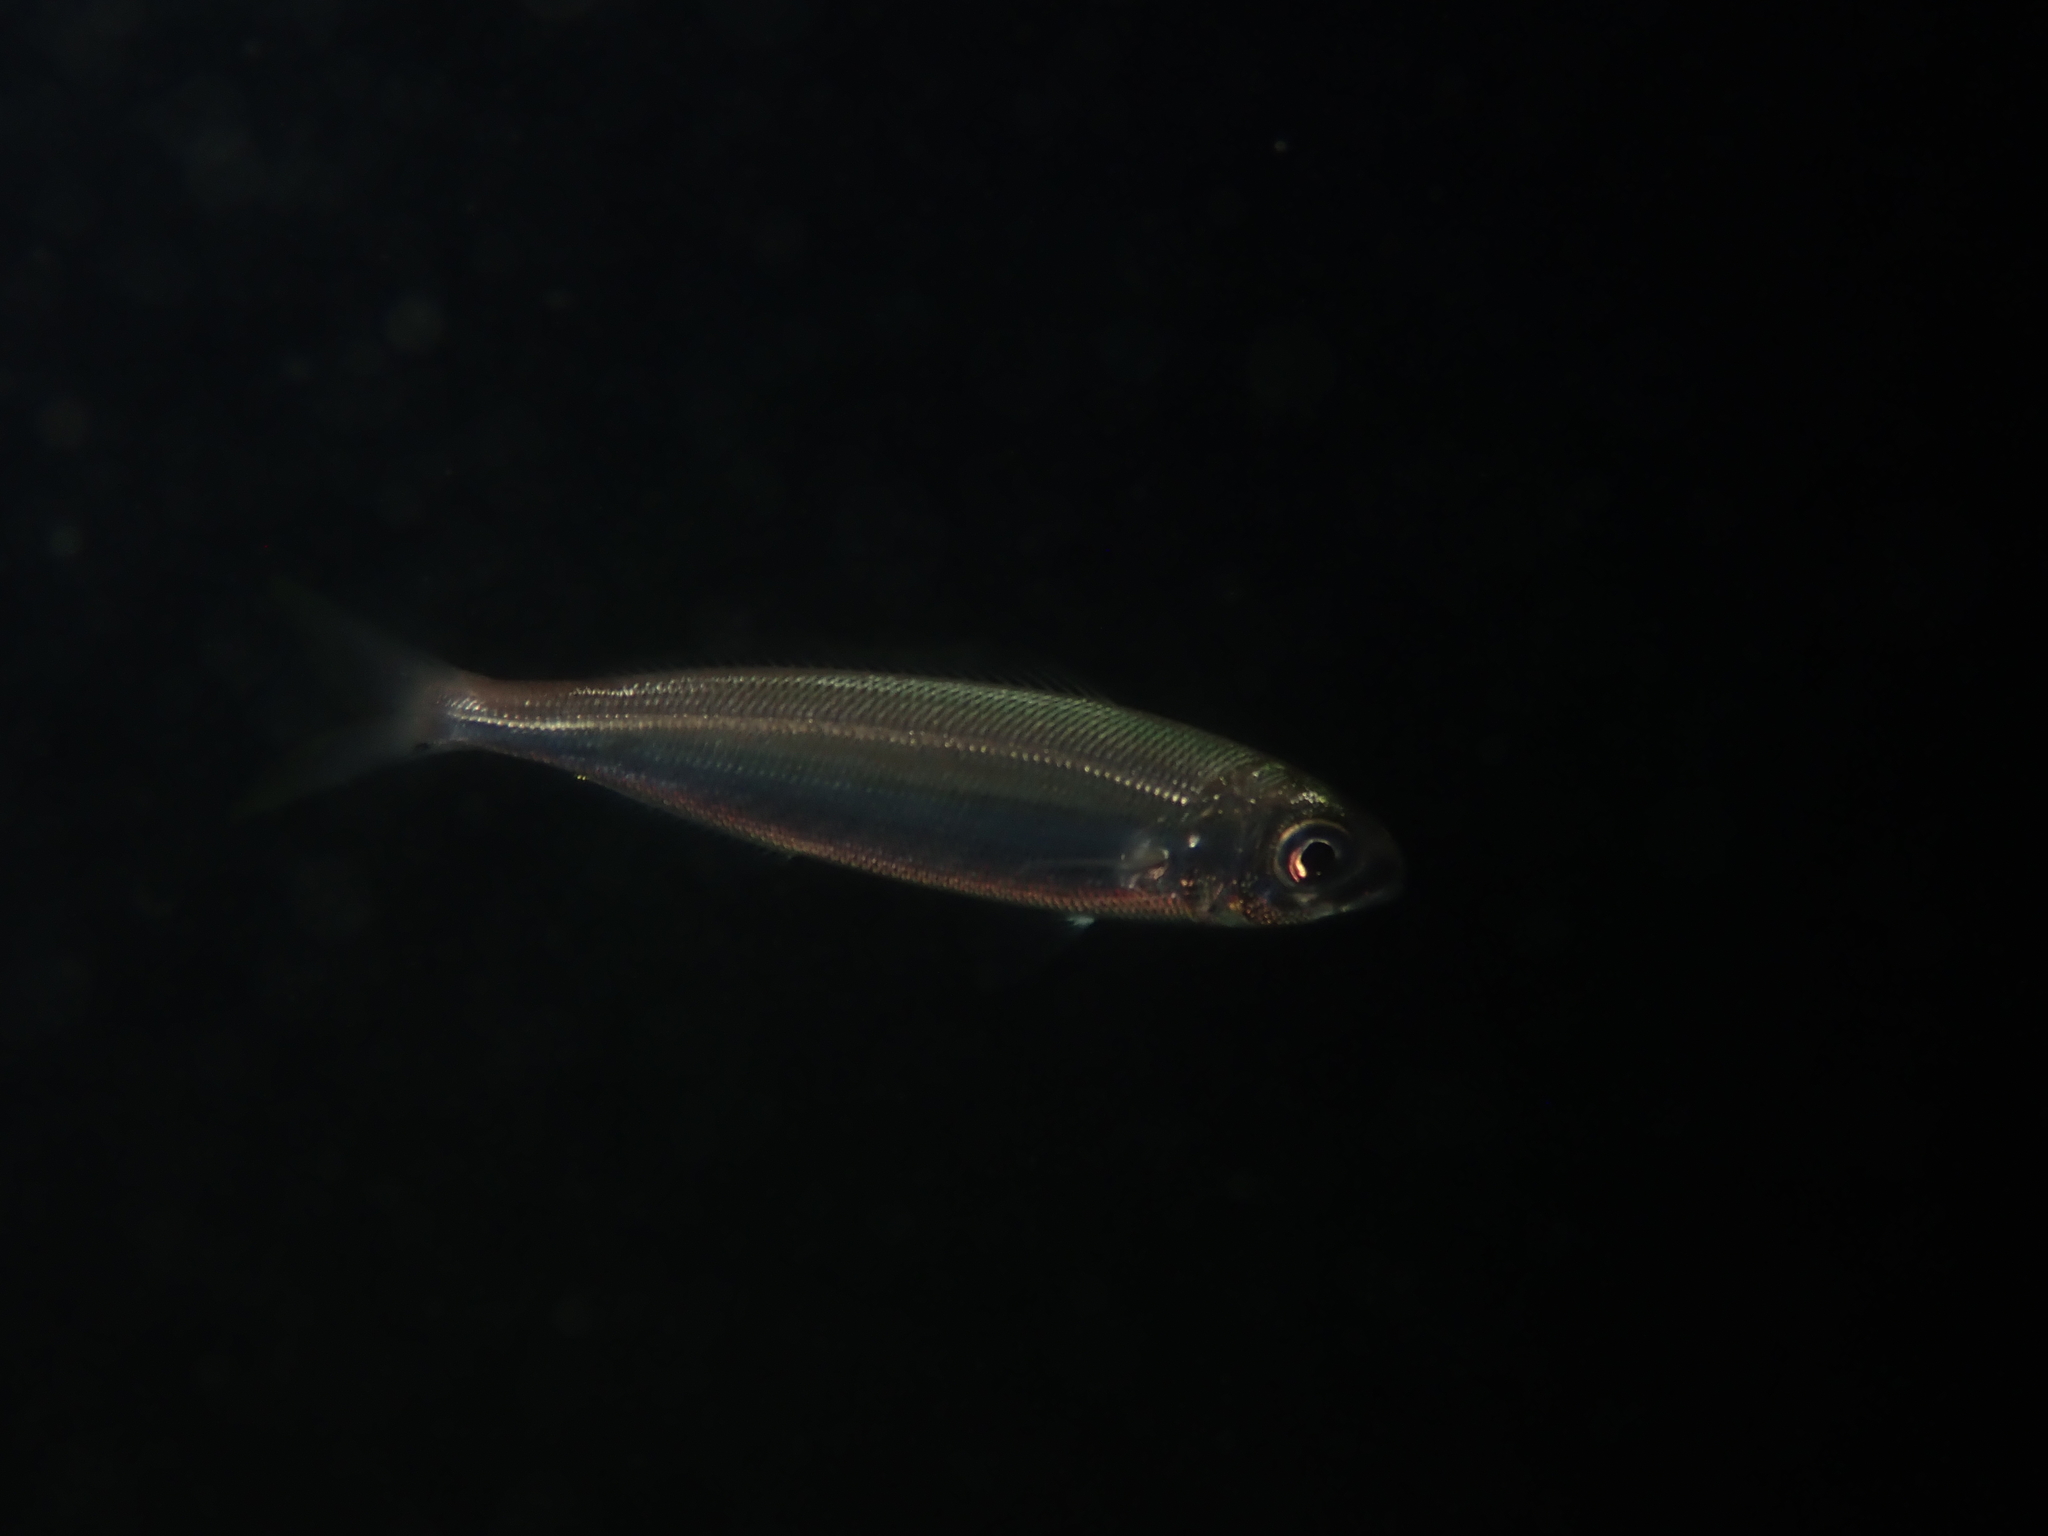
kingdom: Animalia
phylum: Chordata
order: Perciformes
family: Sparidae
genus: Boops
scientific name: Boops boops
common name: Bogue
